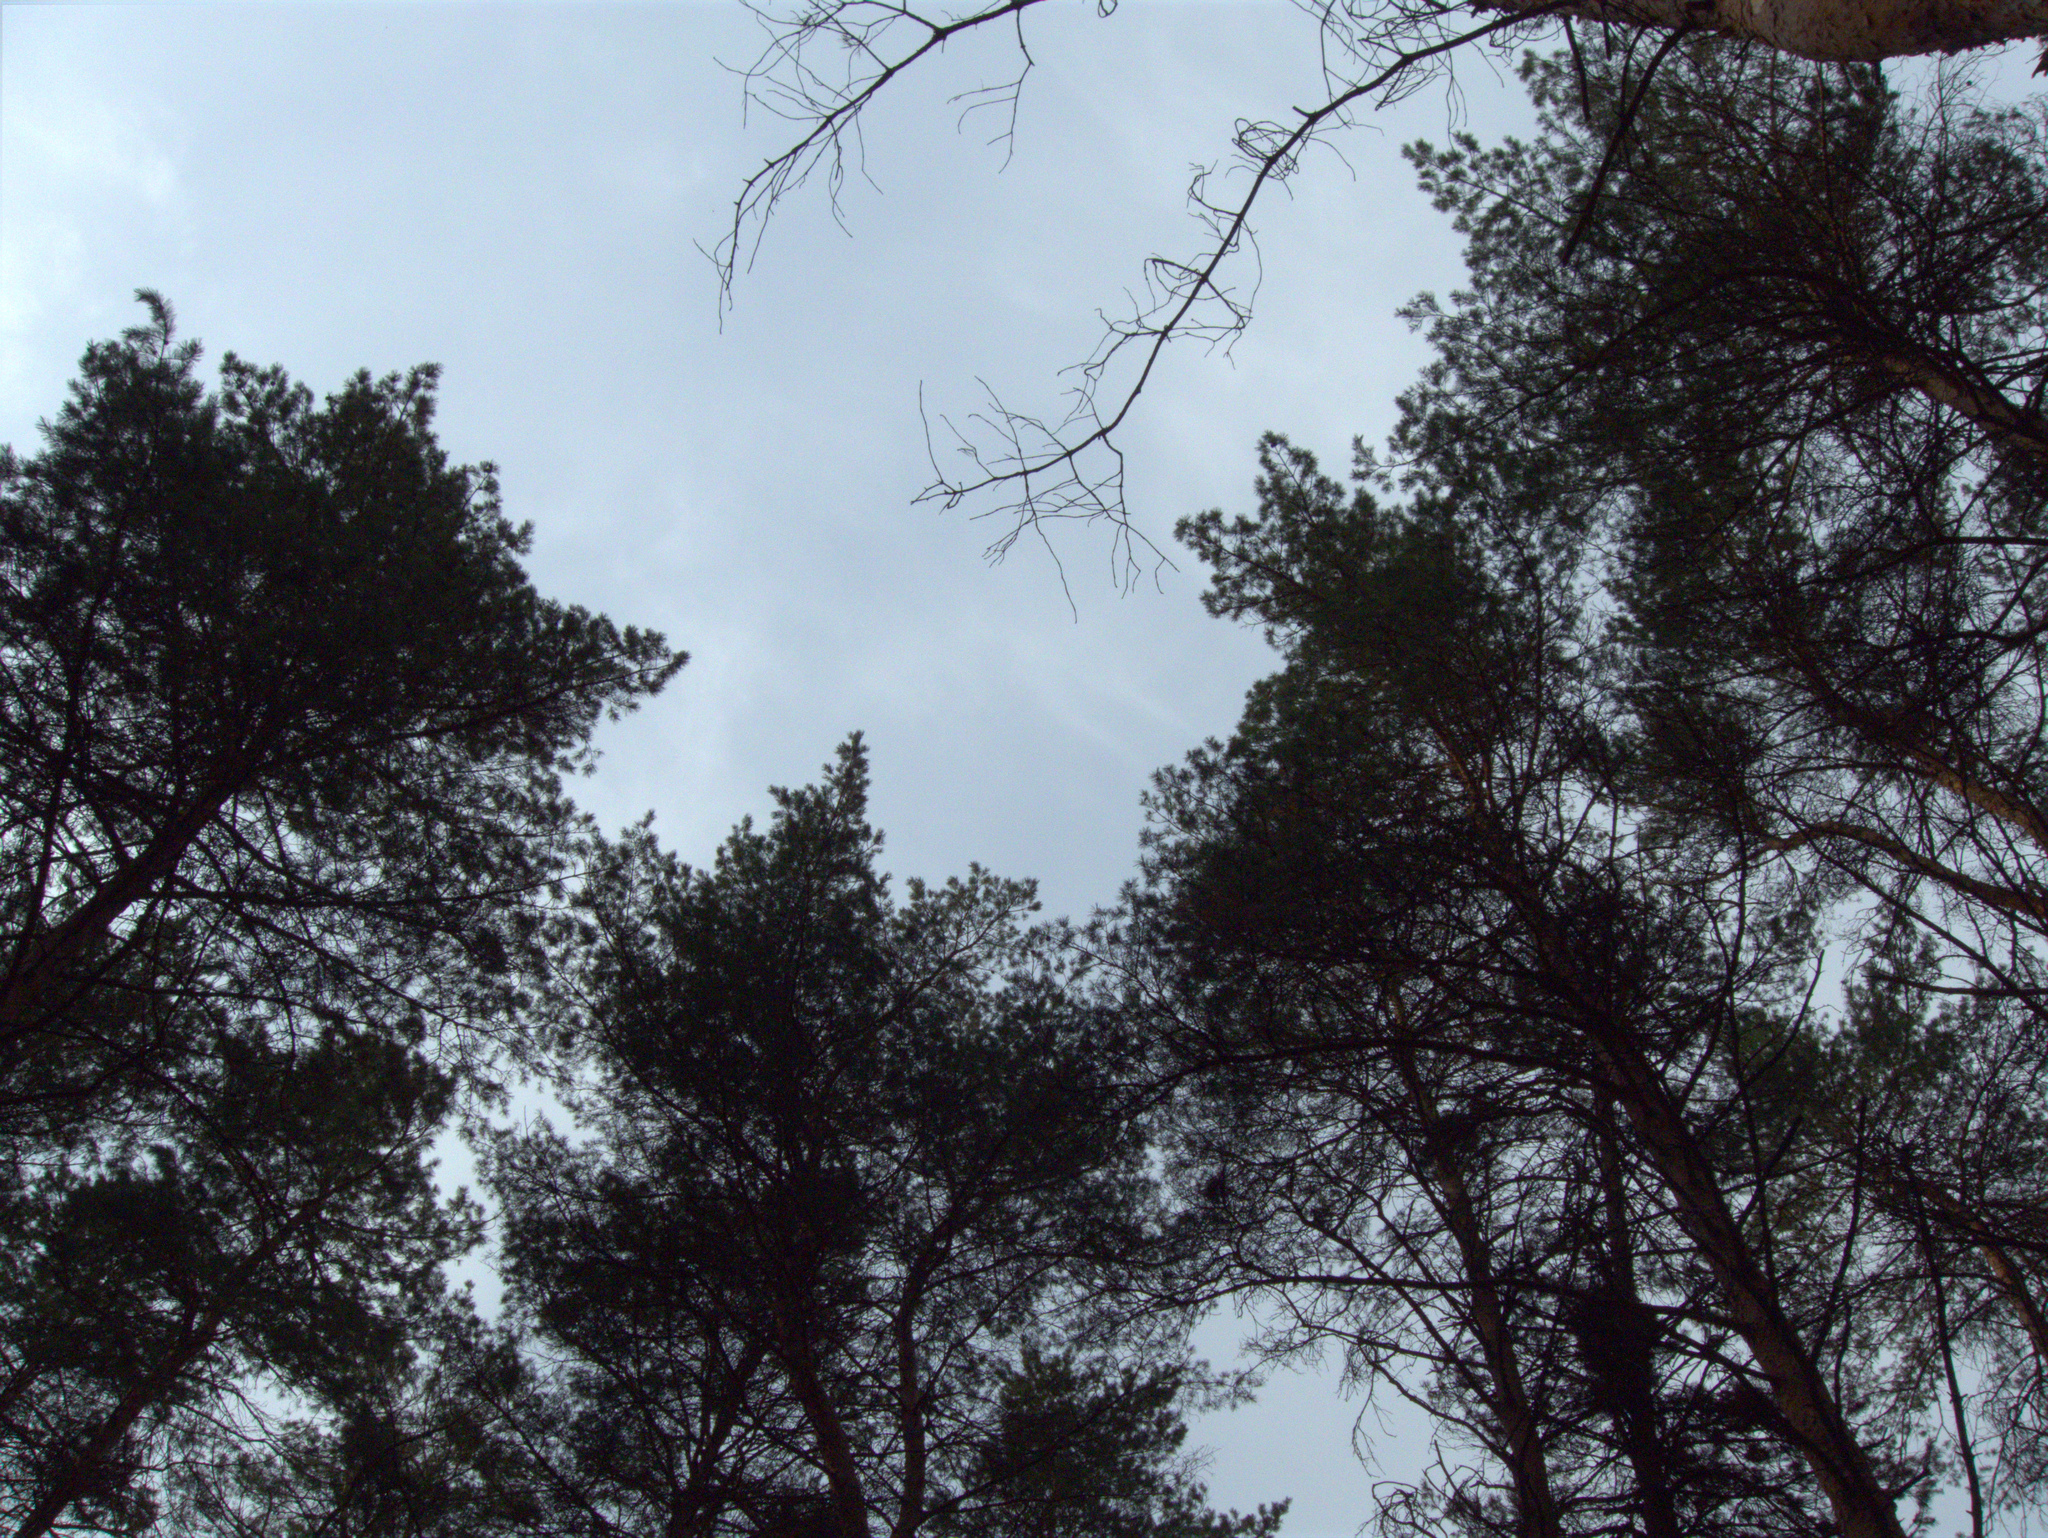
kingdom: Plantae
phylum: Tracheophyta
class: Pinopsida
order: Pinales
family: Pinaceae
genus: Pinus
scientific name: Pinus sylvestris
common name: Scots pine
